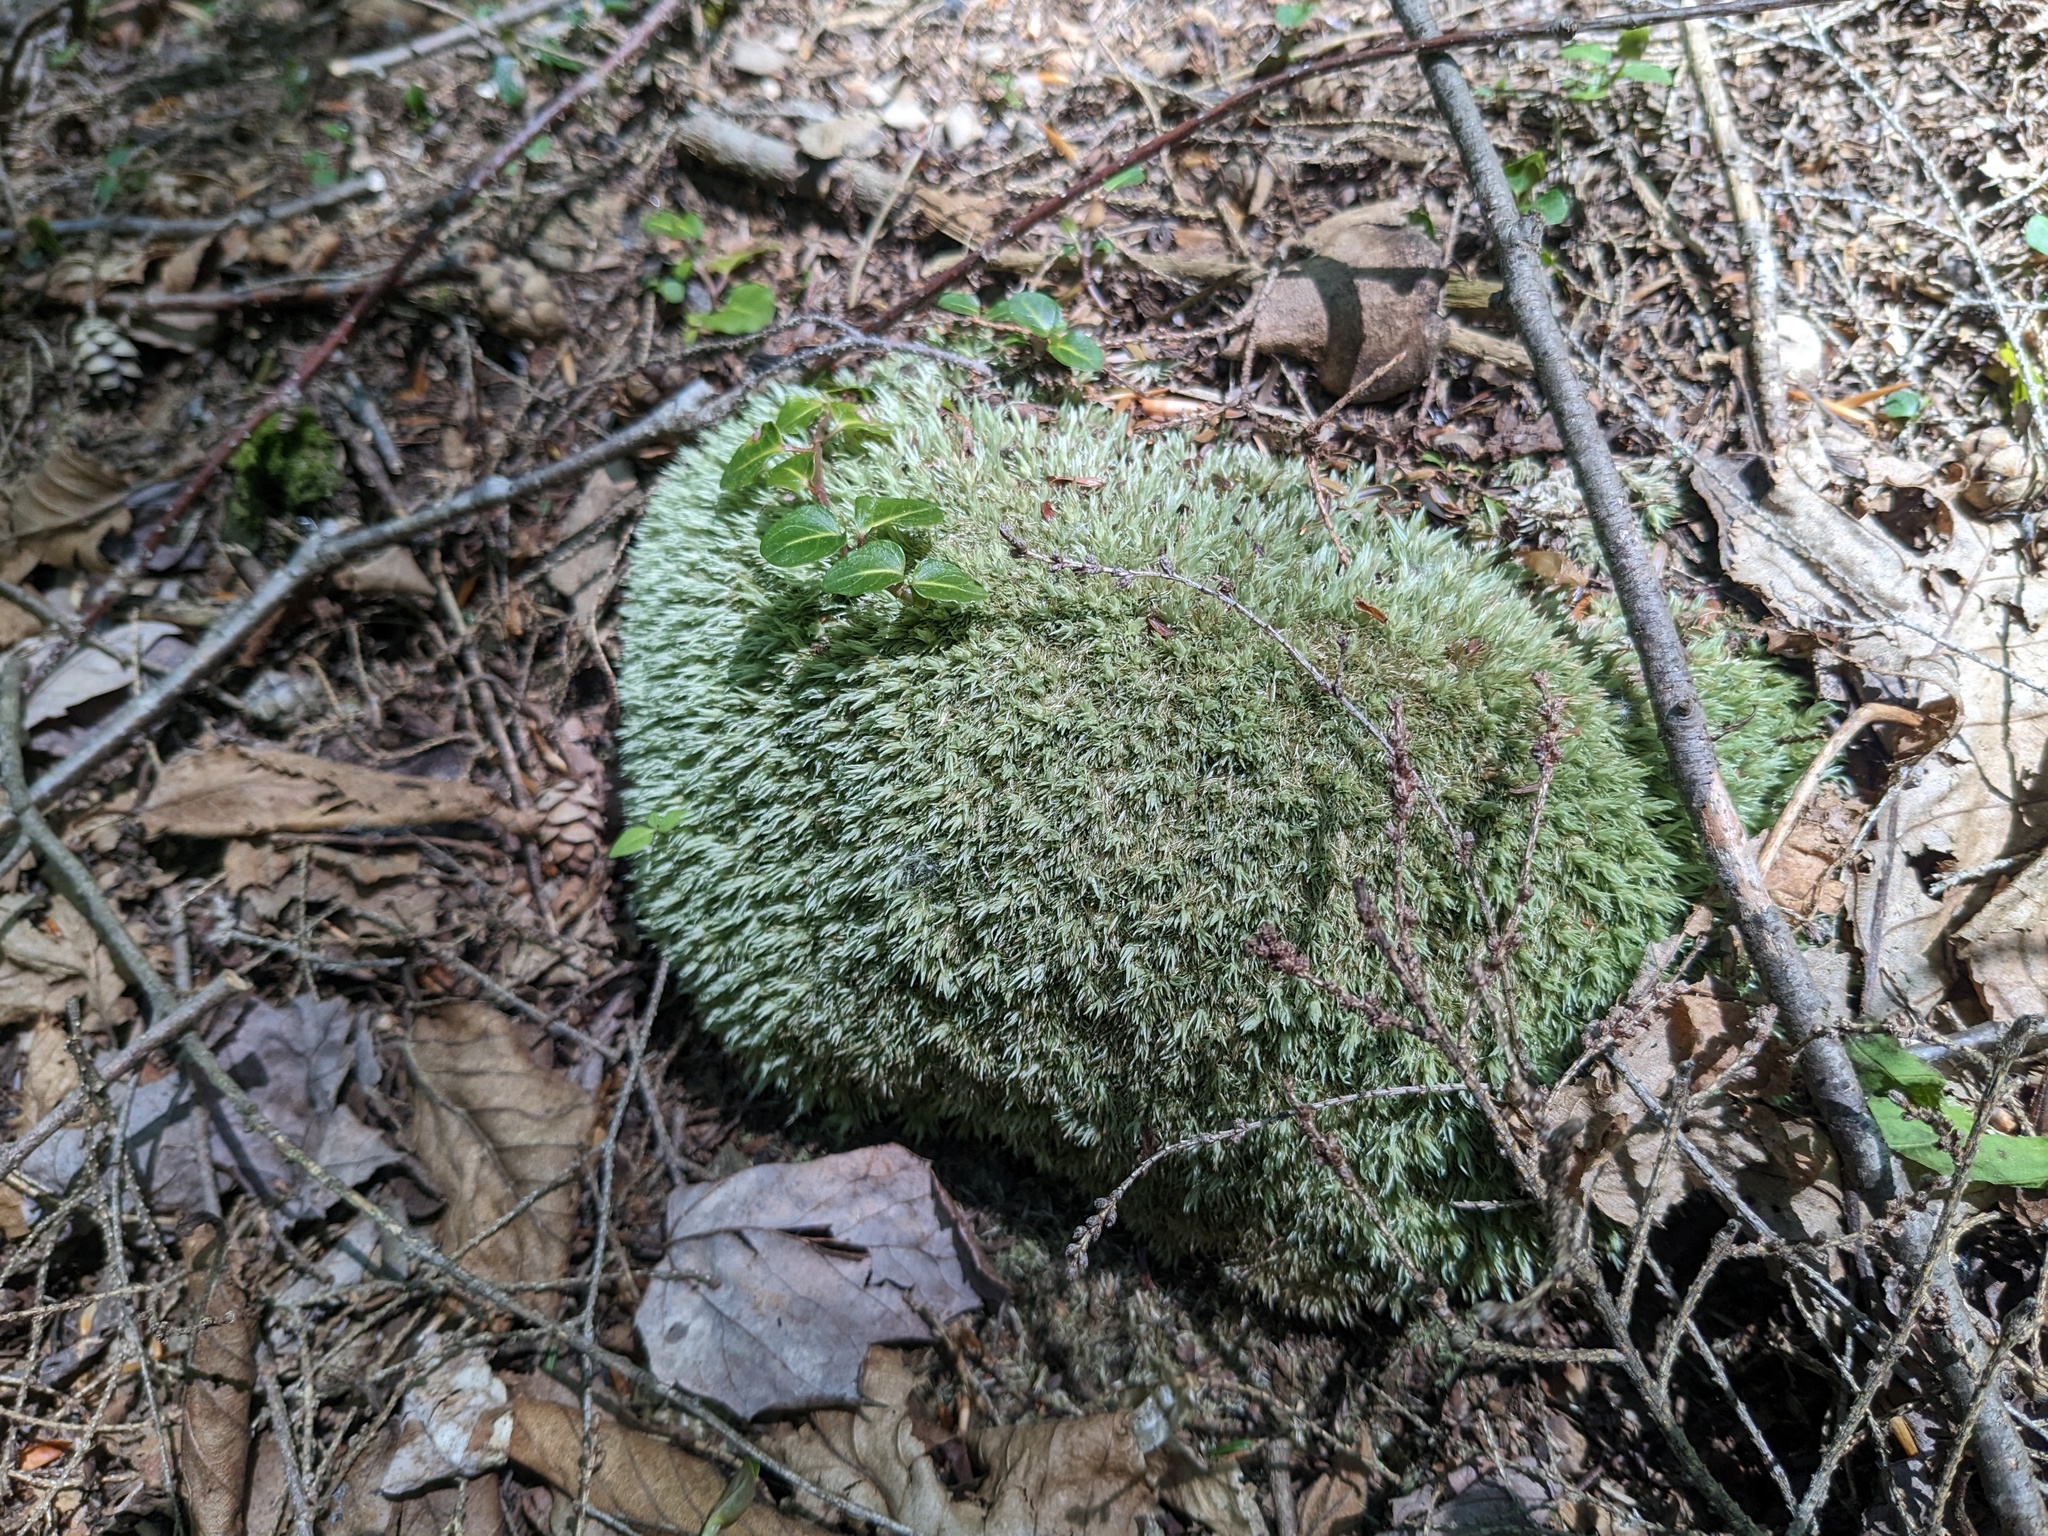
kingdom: Plantae
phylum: Bryophyta
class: Bryopsida
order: Dicranales
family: Leucobryaceae
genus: Leucobryum
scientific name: Leucobryum glaucum
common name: Large white-moss
